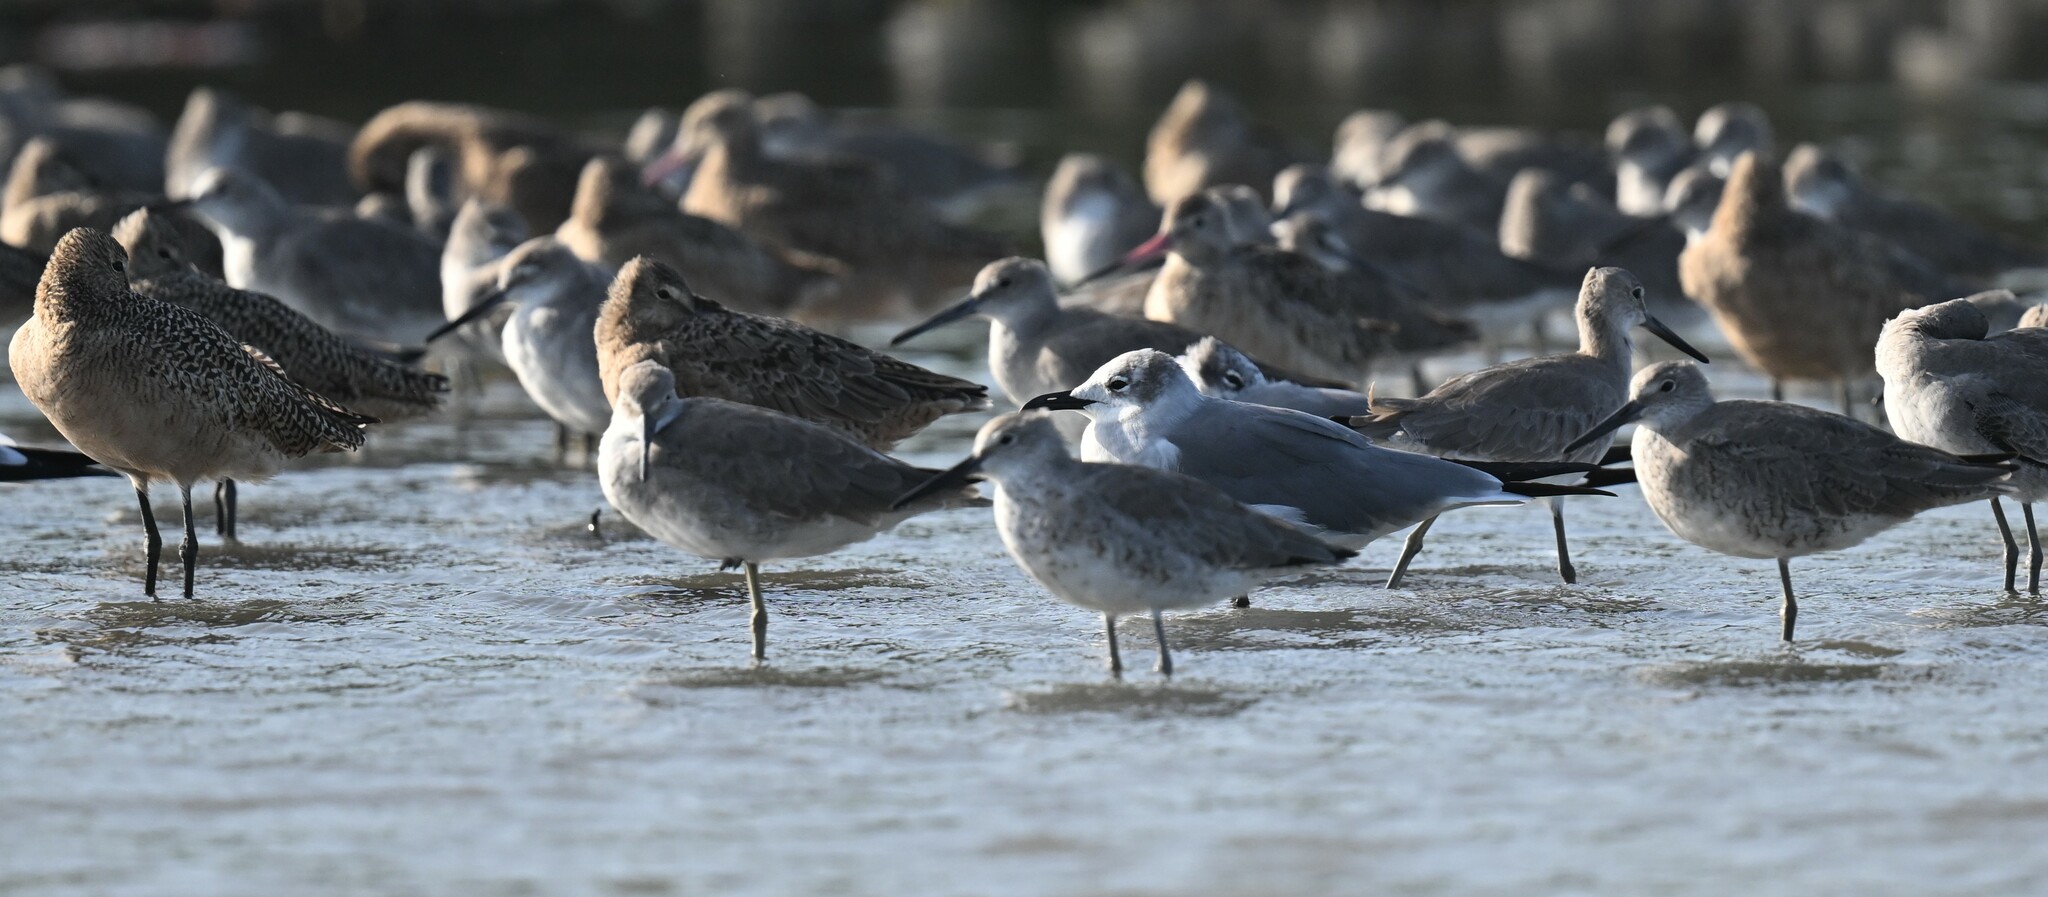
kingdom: Animalia
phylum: Chordata
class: Aves
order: Charadriiformes
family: Laridae
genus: Leucophaeus
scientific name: Leucophaeus atricilla
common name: Laughing gull
